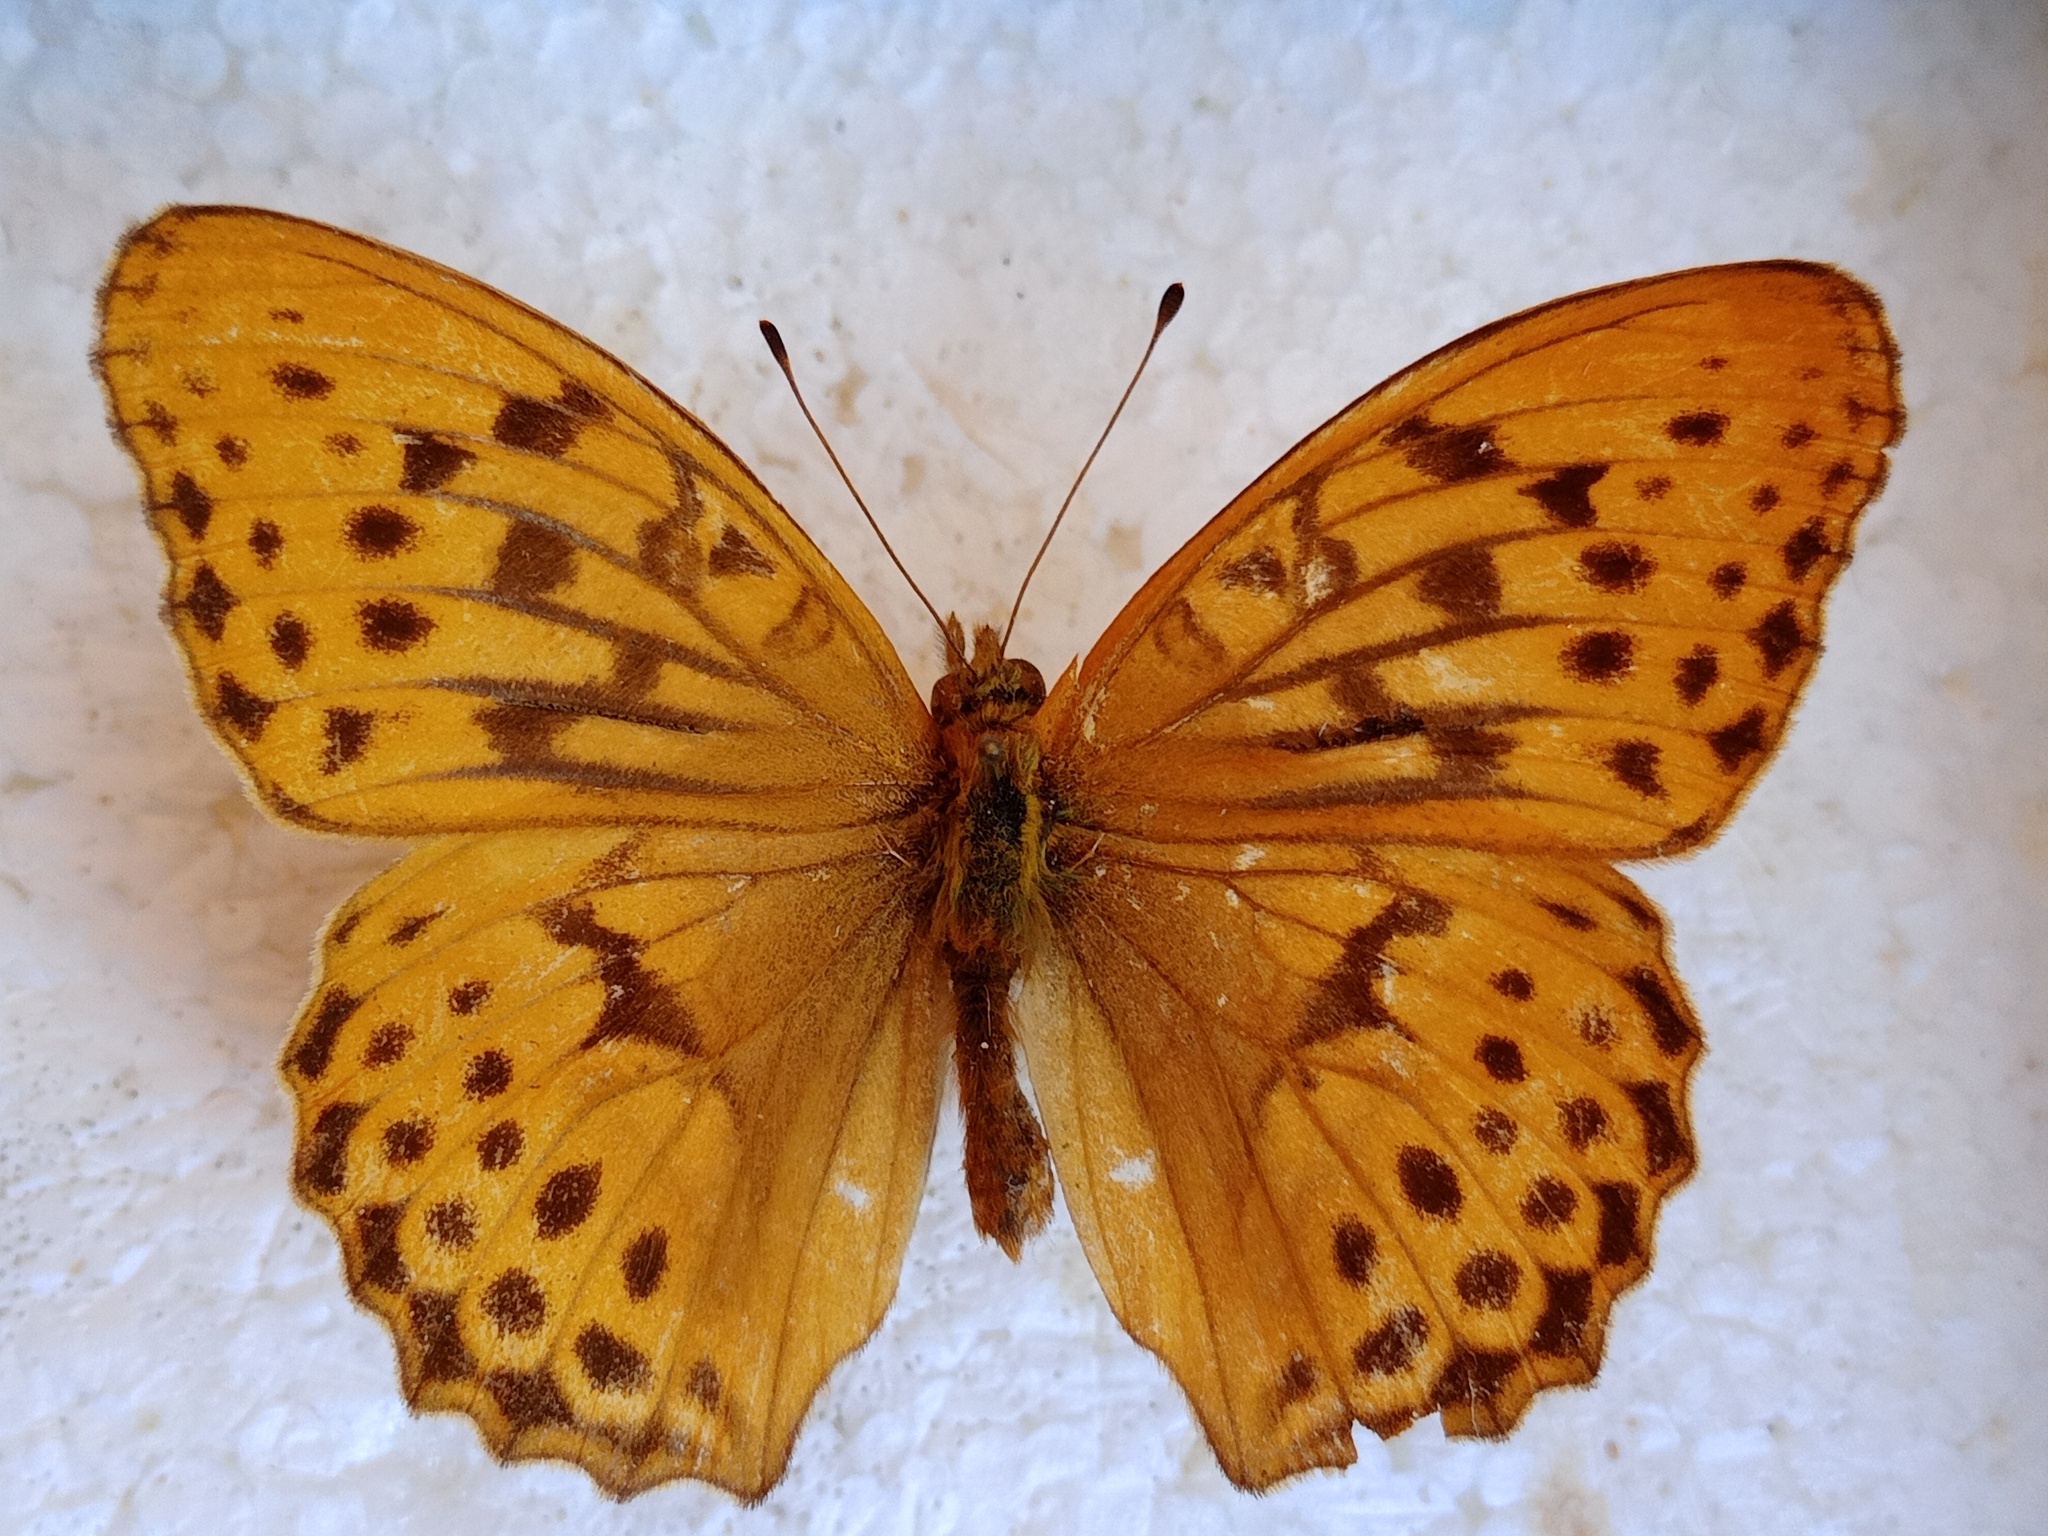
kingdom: Animalia
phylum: Arthropoda
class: Insecta
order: Lepidoptera
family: Nymphalidae
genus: Damora
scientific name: Damora sagana
